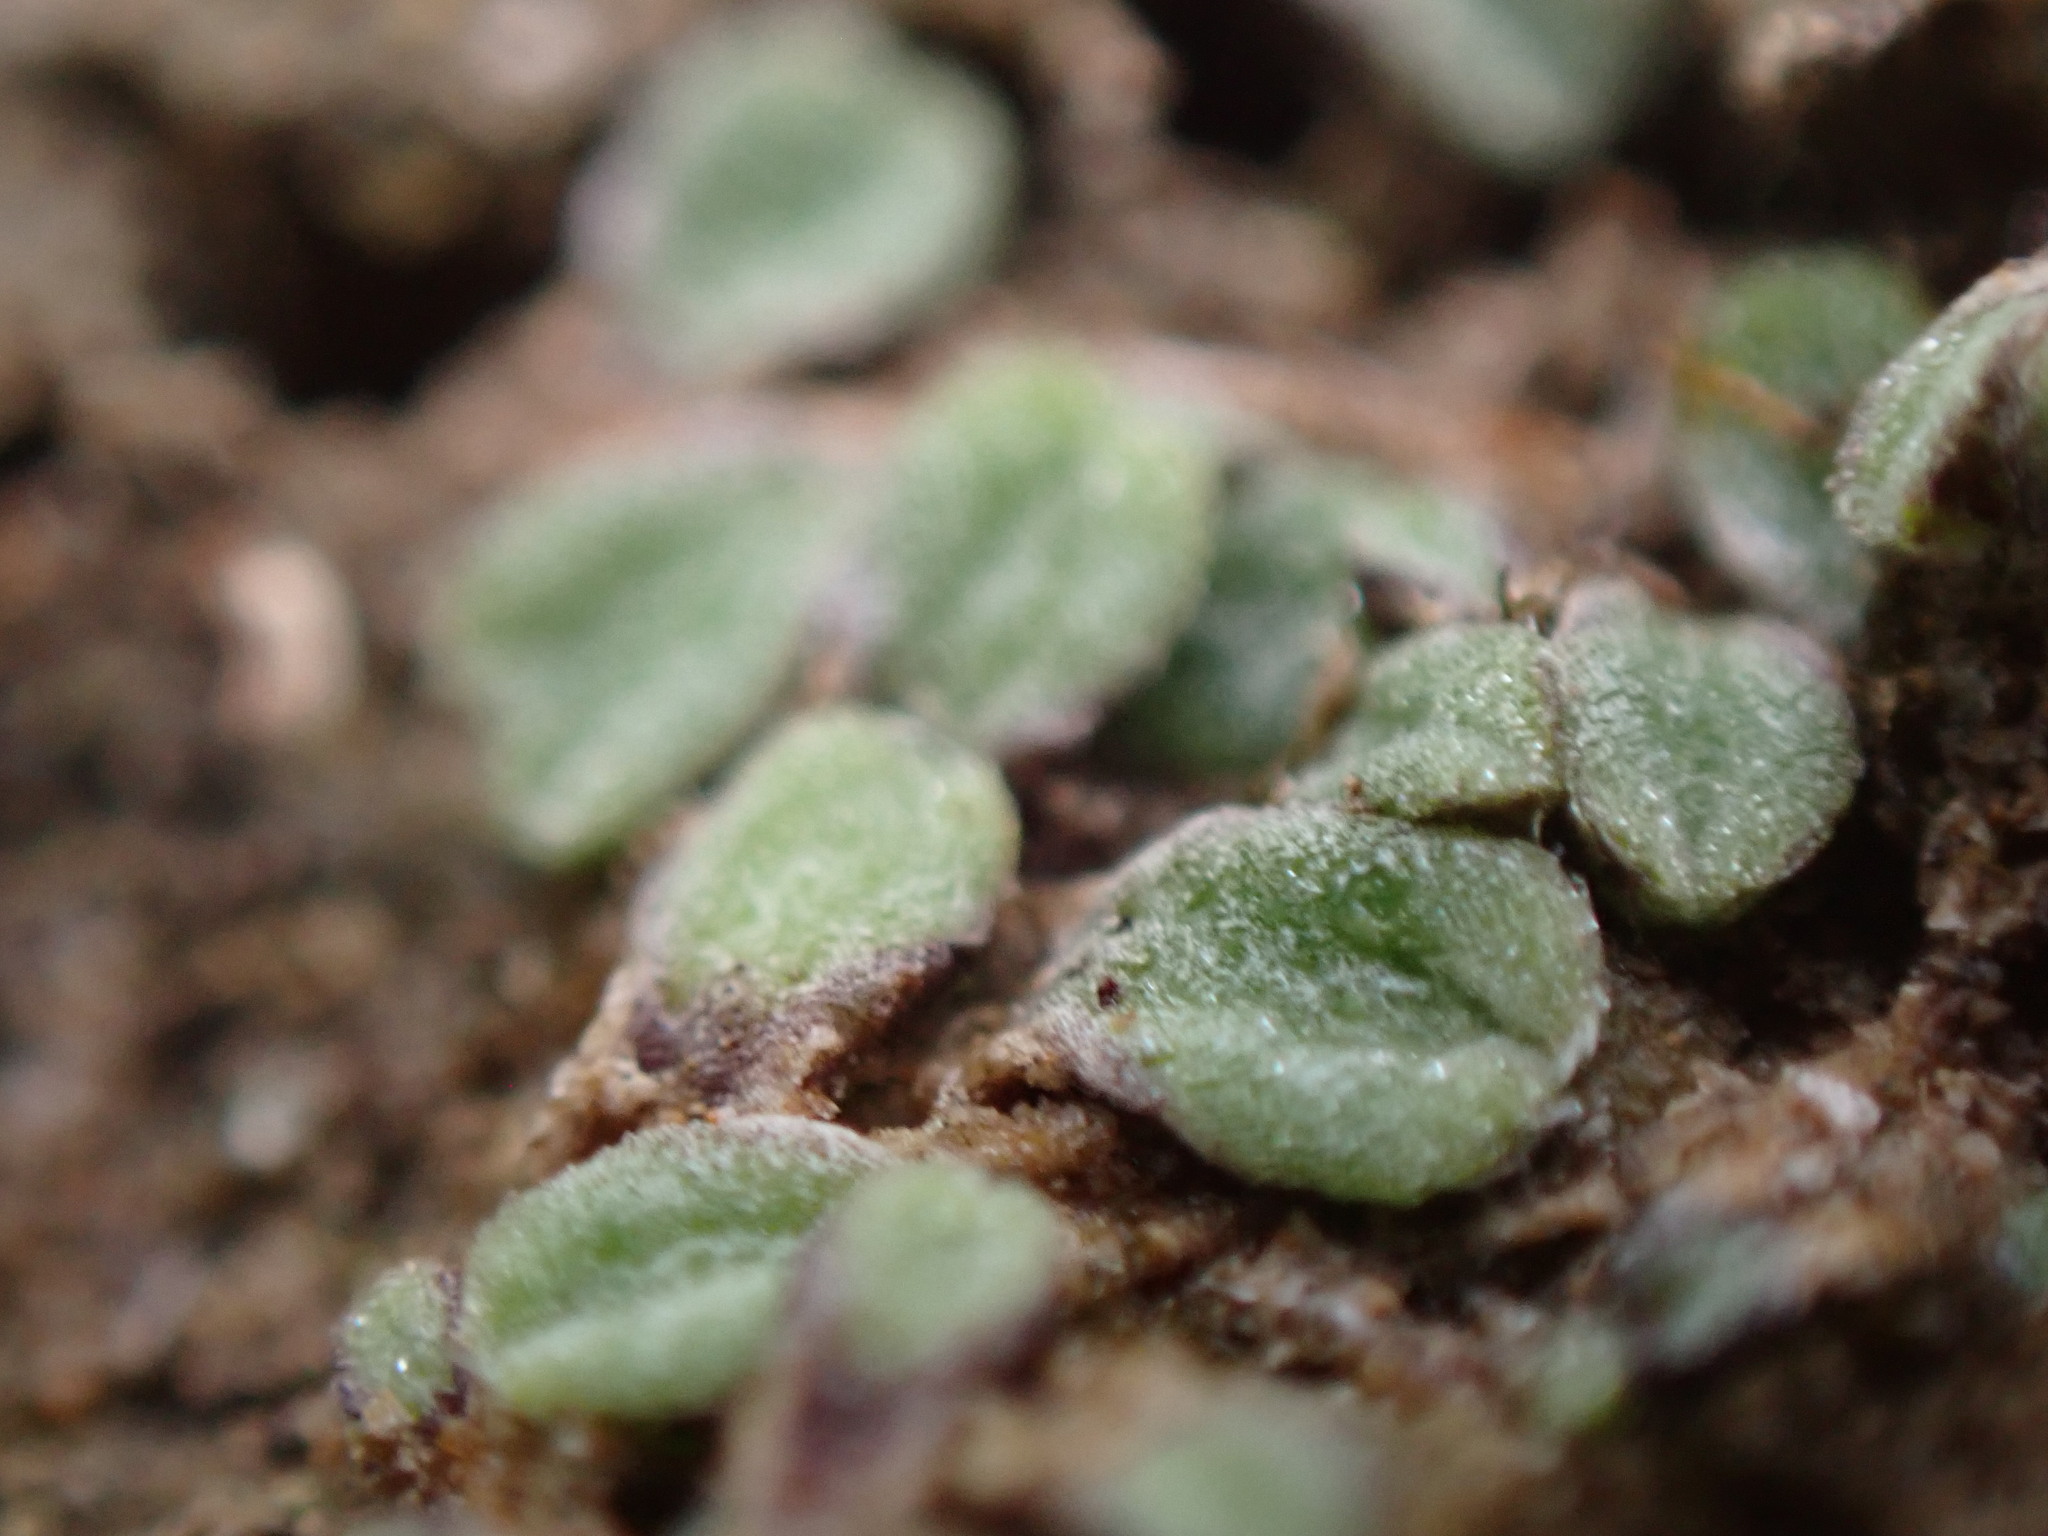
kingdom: Plantae
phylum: Marchantiophyta
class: Marchantiopsida
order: Marchantiales
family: Ricciaceae
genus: Riccia
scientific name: Riccia beyrichiana
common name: Purple crystalwort
